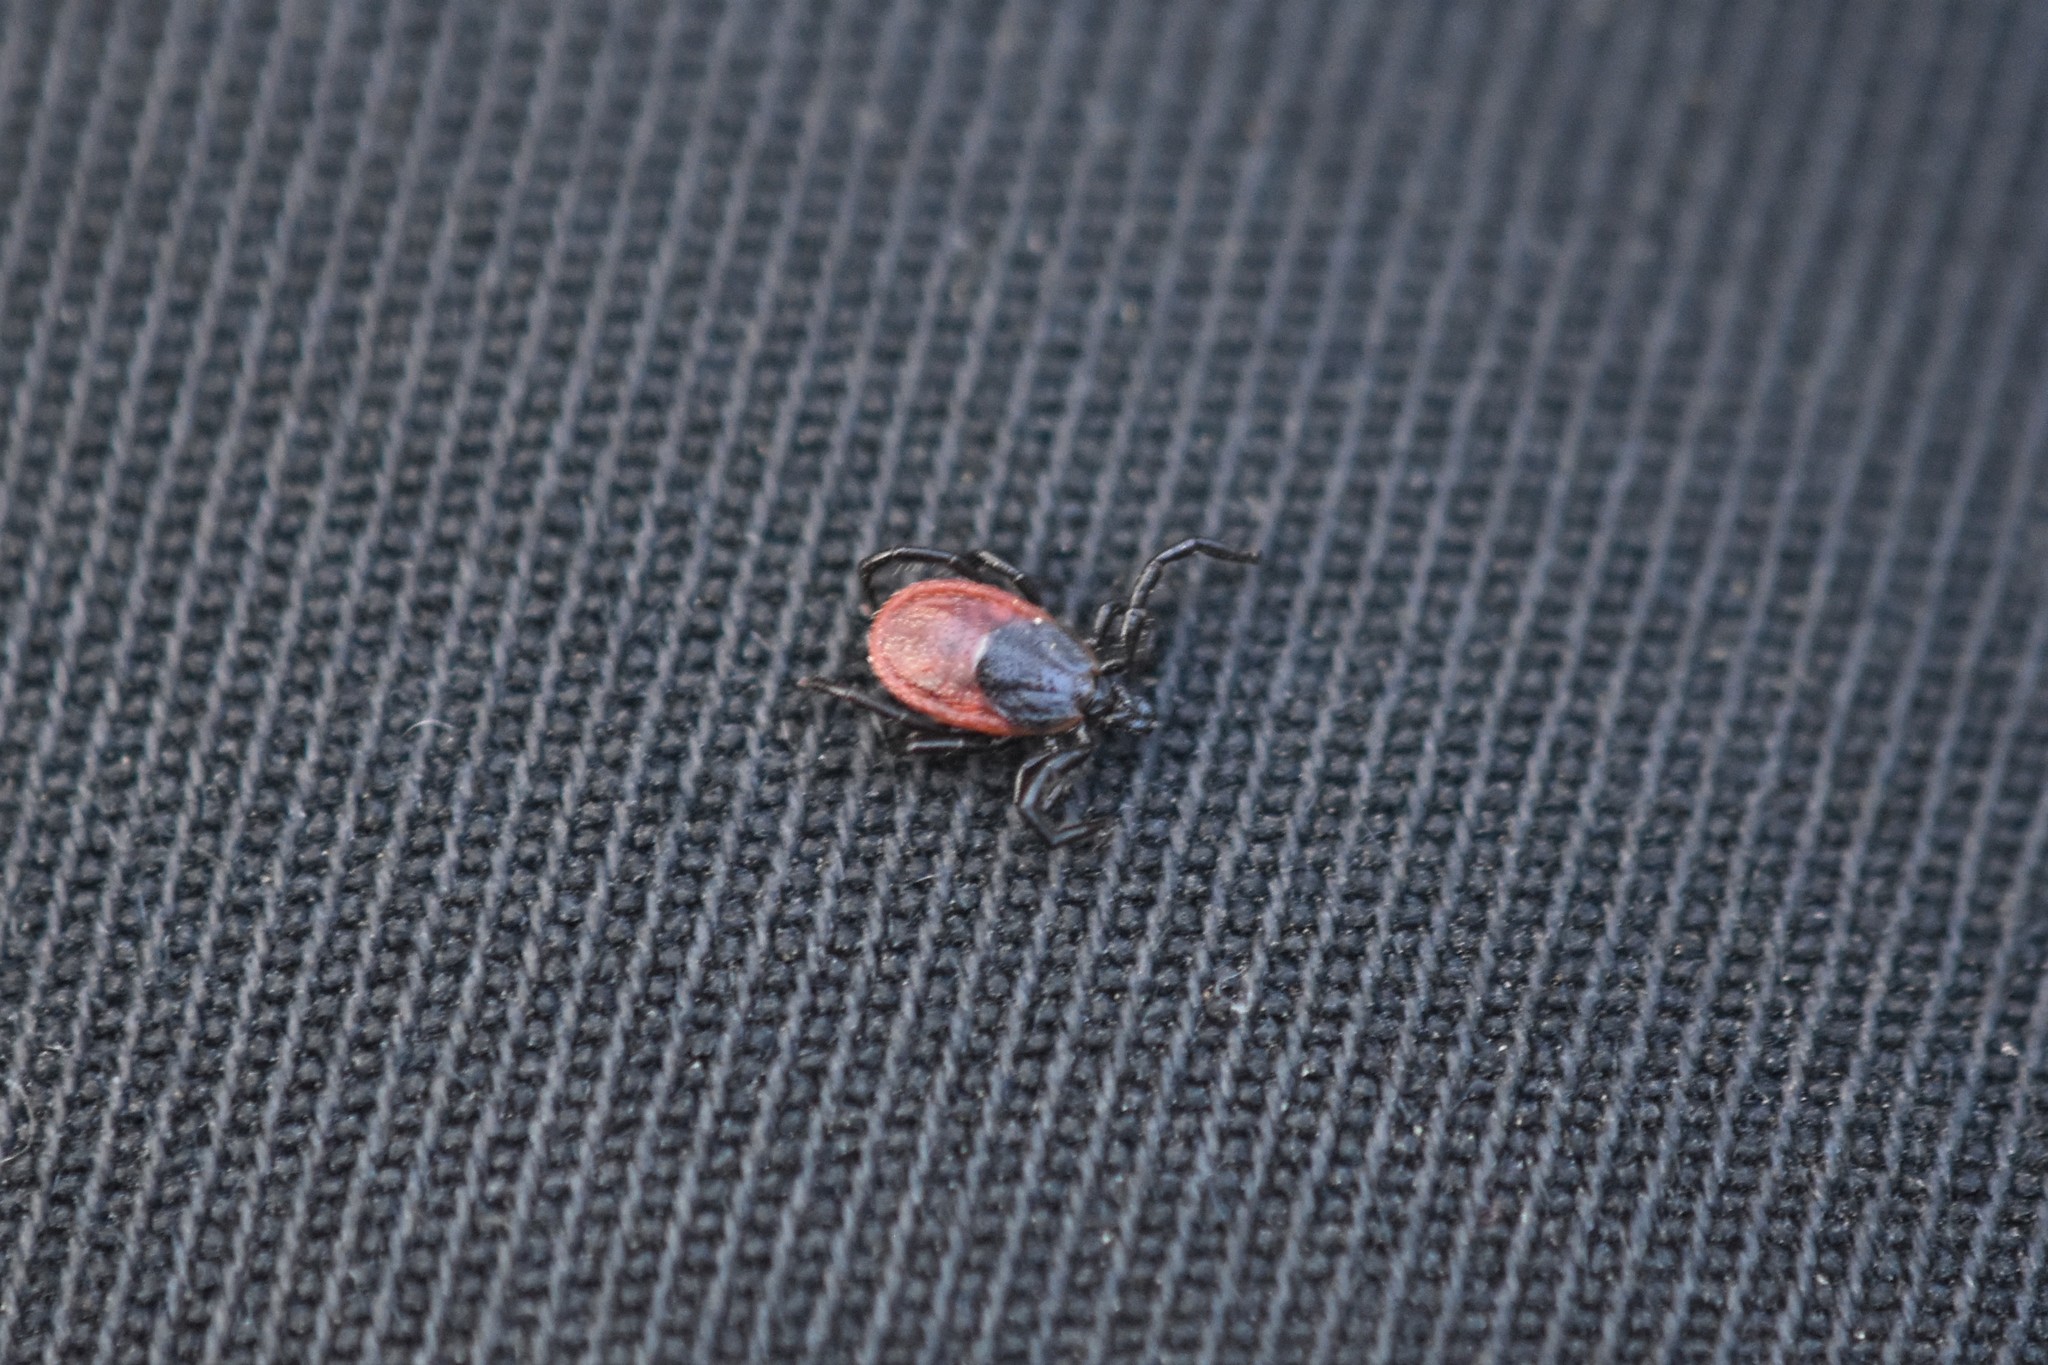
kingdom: Animalia
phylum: Arthropoda
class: Arachnida
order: Ixodida
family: Ixodidae
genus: Ixodes
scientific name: Ixodes pacificus
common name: California black-legged tick
